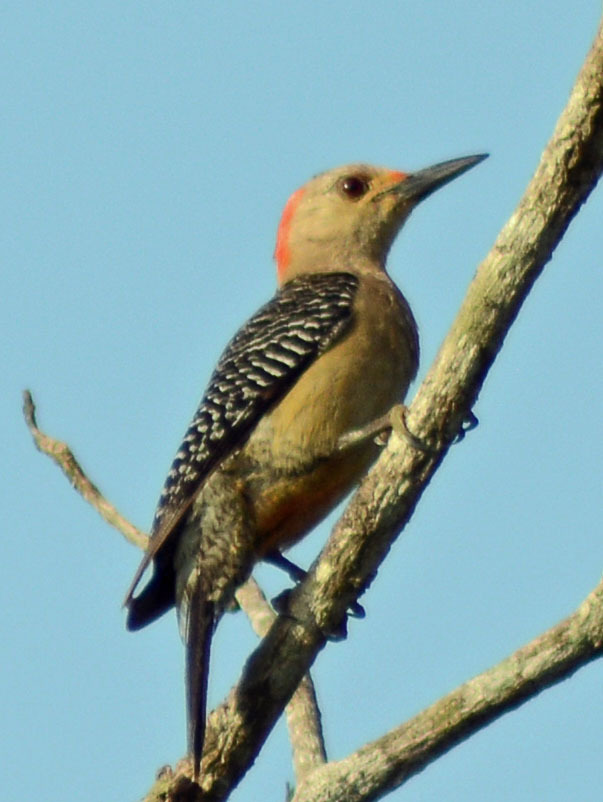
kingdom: Animalia
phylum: Chordata
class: Aves
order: Piciformes
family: Picidae
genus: Melanerpes
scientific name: Melanerpes aurifrons
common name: Golden-fronted woodpecker
